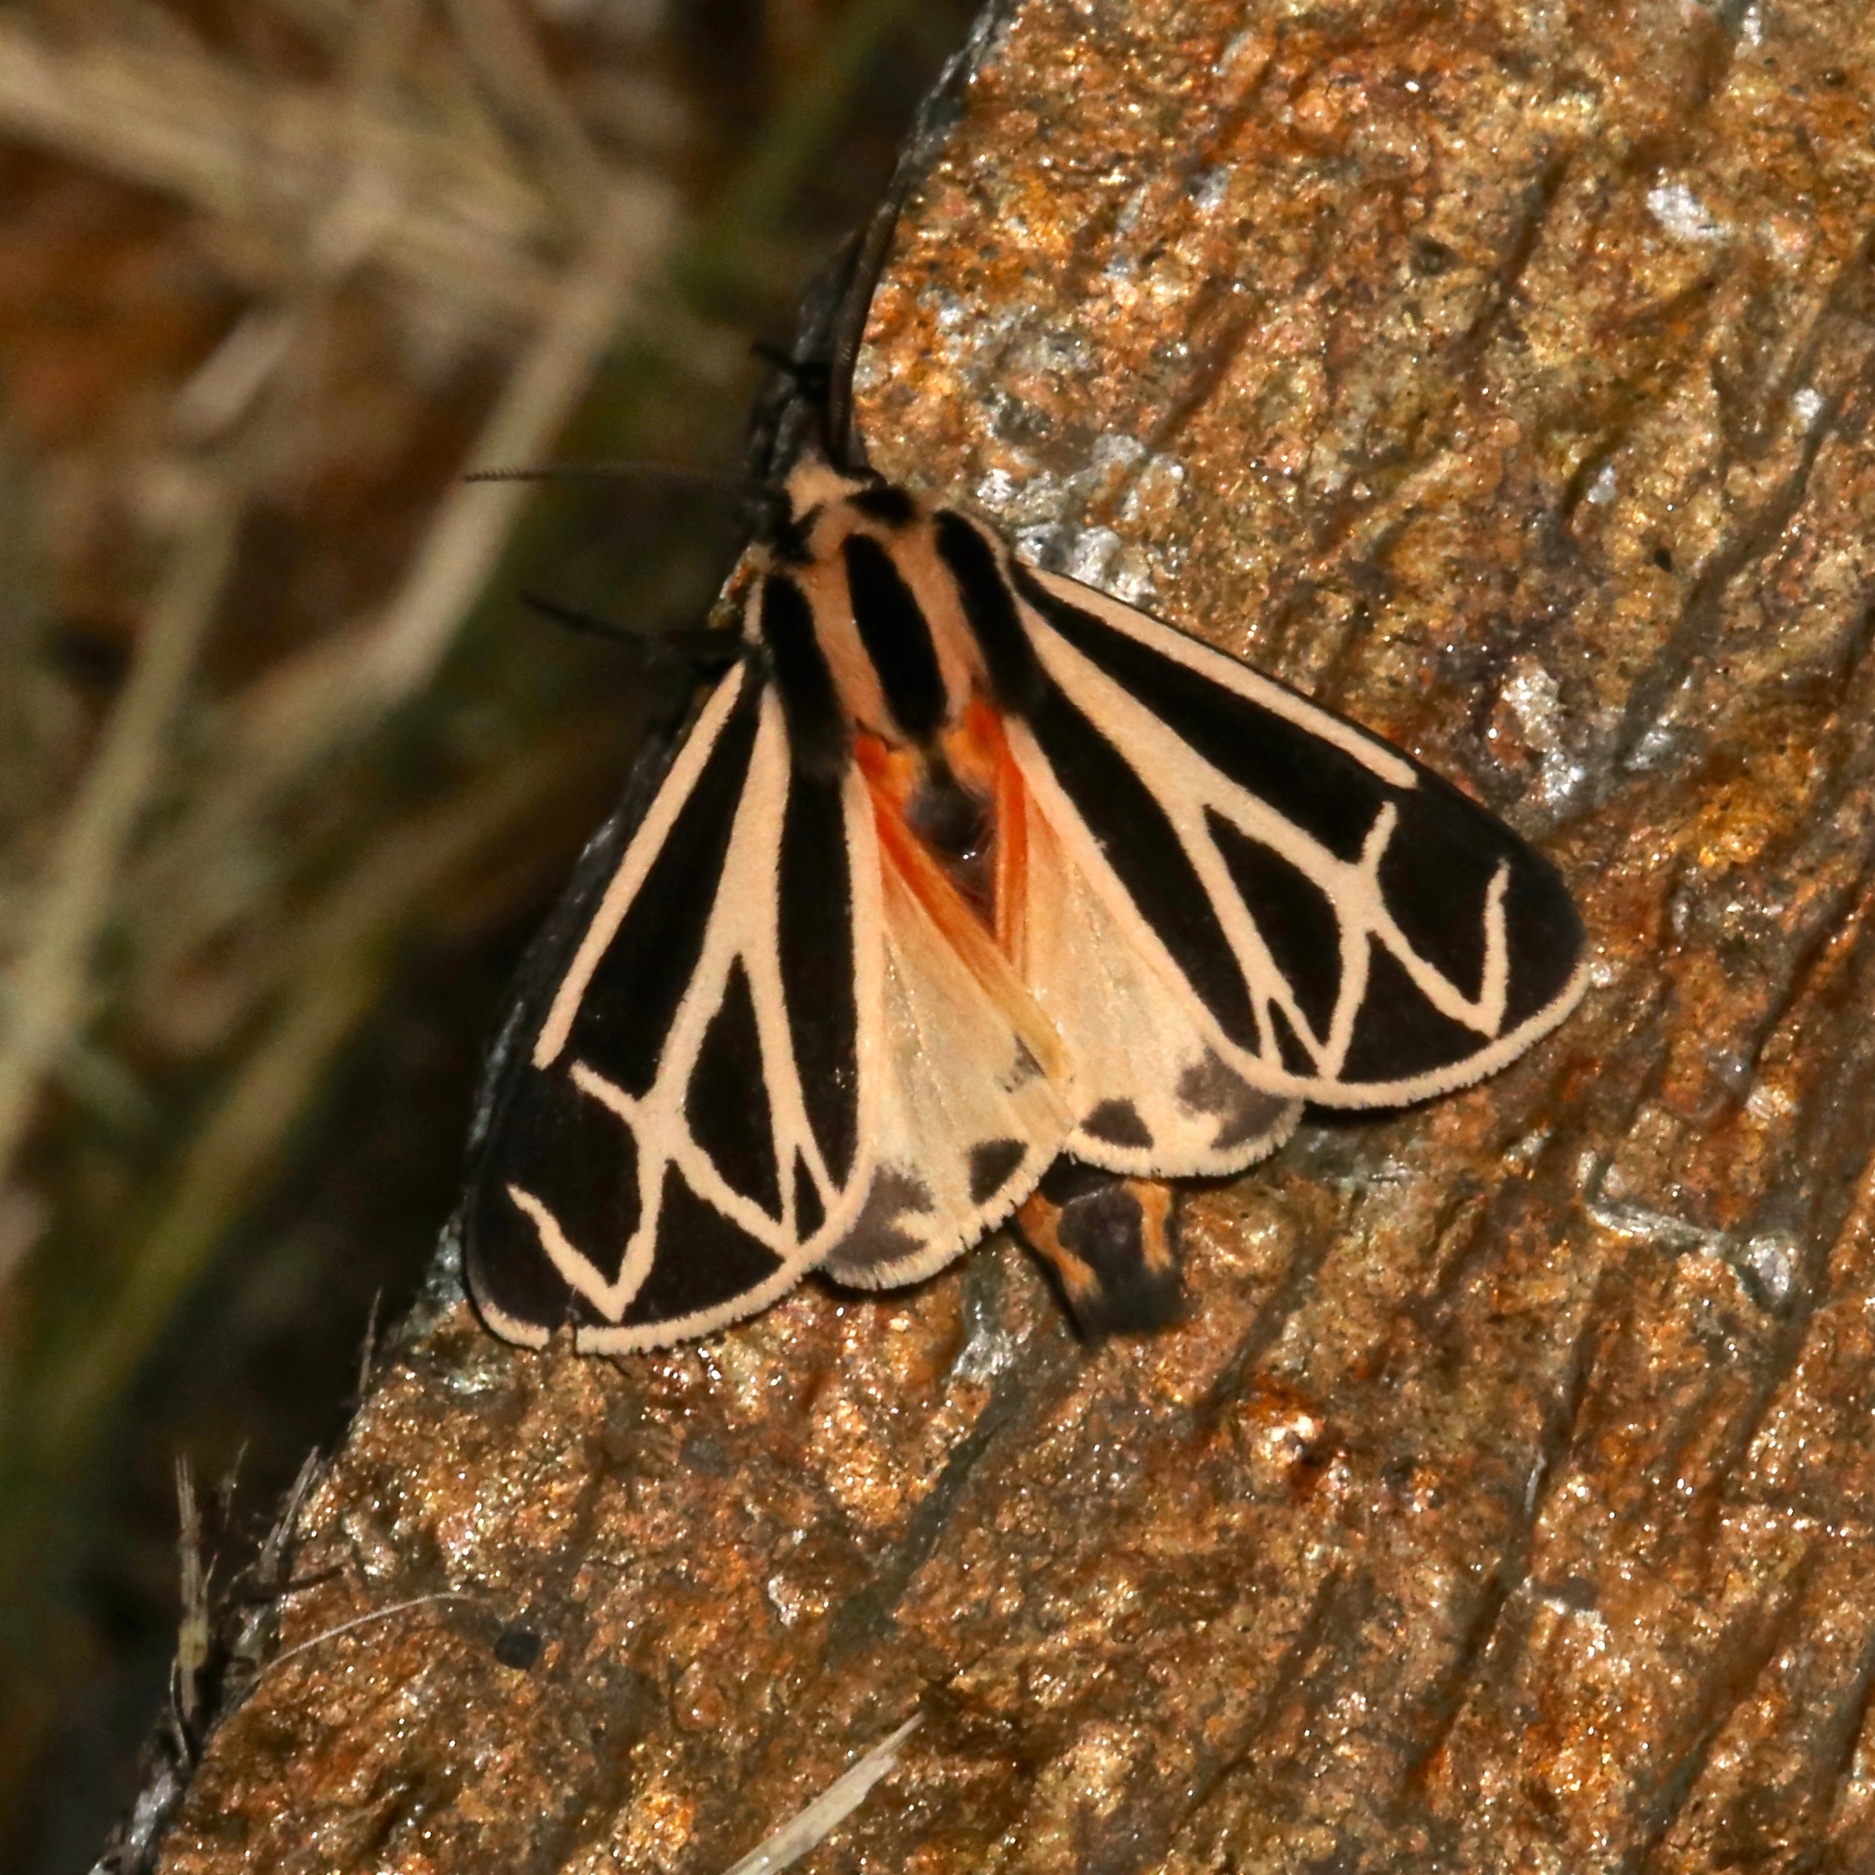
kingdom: Animalia
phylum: Arthropoda
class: Insecta
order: Lepidoptera
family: Erebidae
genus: Apantesis
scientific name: Apantesis phalerata
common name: Harnessed tiger moth
